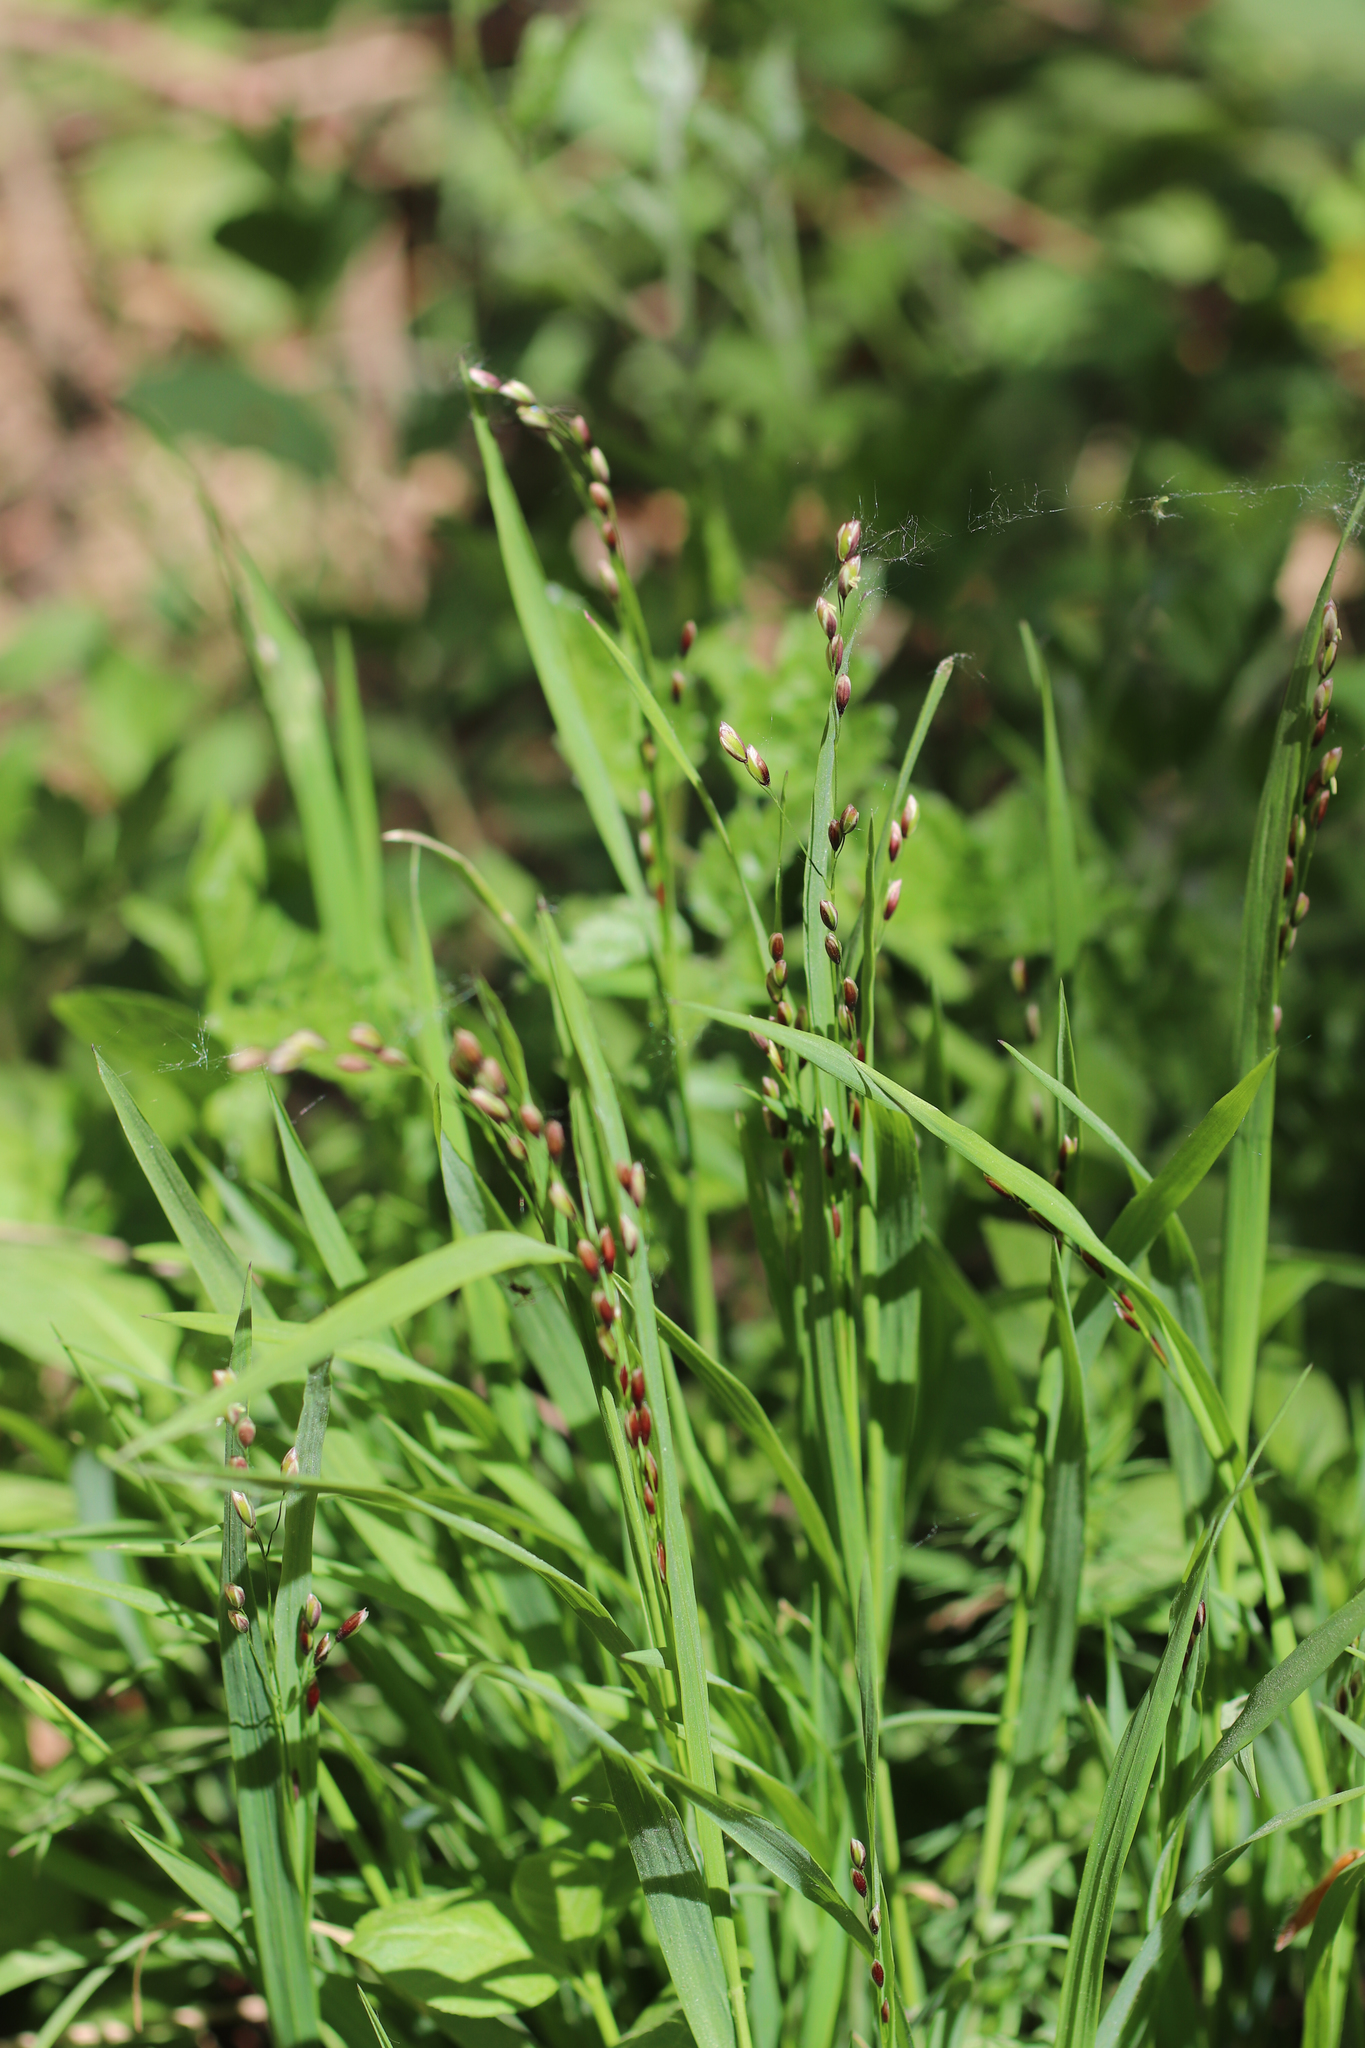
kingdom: Plantae
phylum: Tracheophyta
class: Liliopsida
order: Poales
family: Poaceae
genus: Melica
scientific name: Melica uniflora
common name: Wood melick
